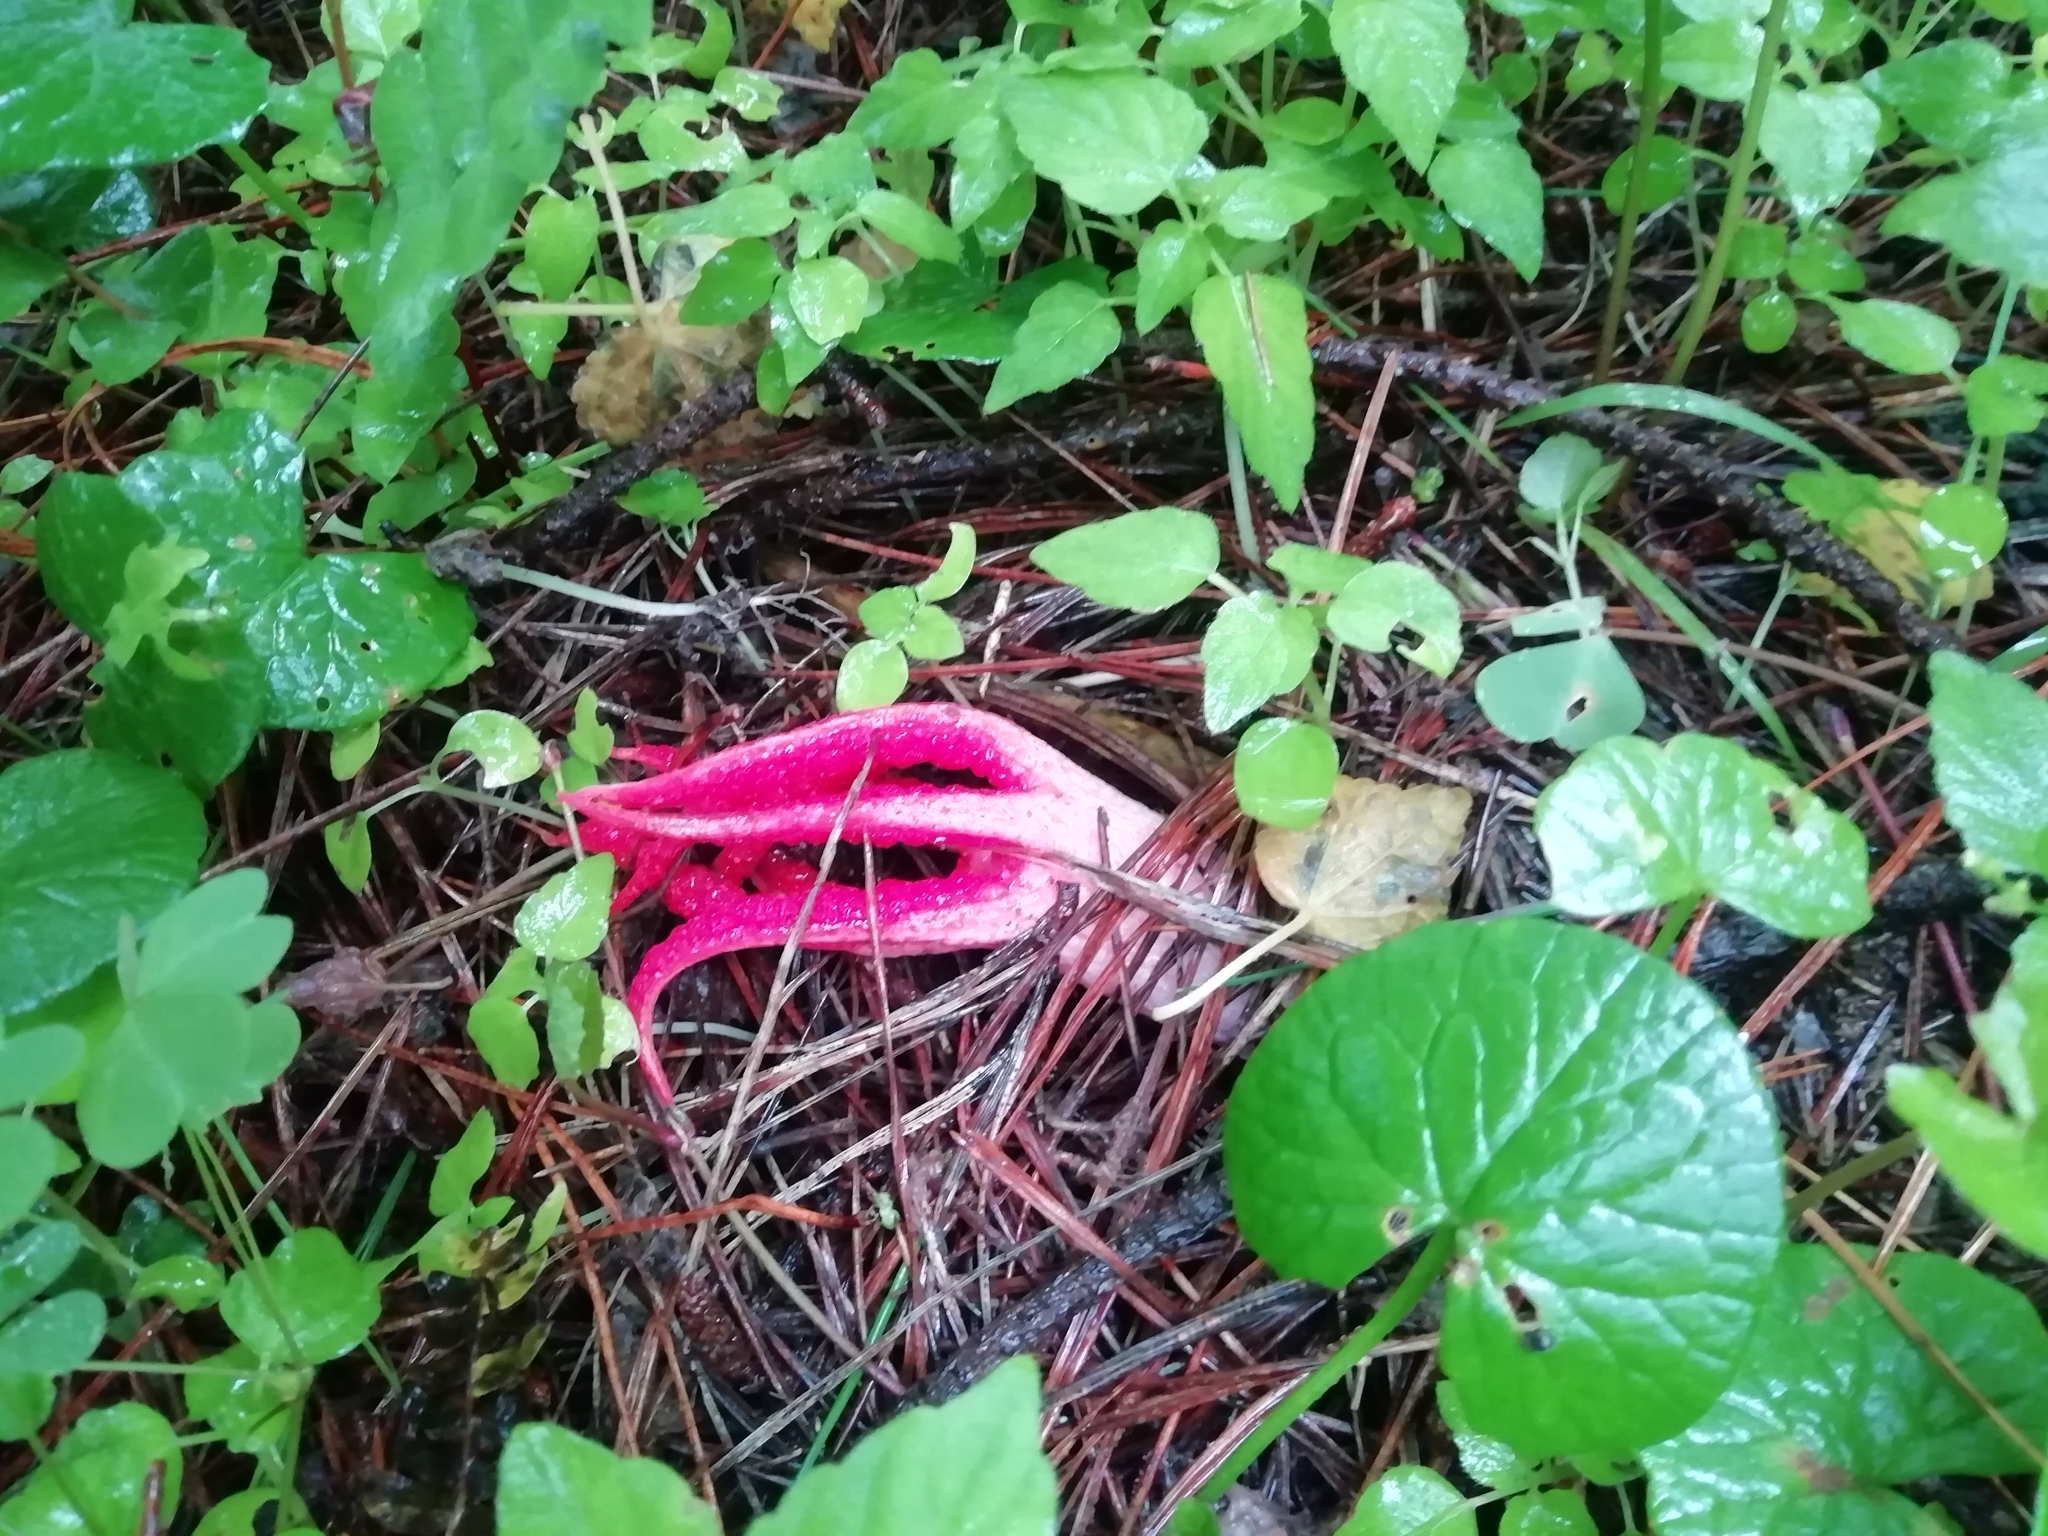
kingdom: Fungi
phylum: Basidiomycota
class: Agaricomycetes
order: Phallales
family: Phallaceae
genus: Clathrus
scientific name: Clathrus archeri
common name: Devil's fingers
